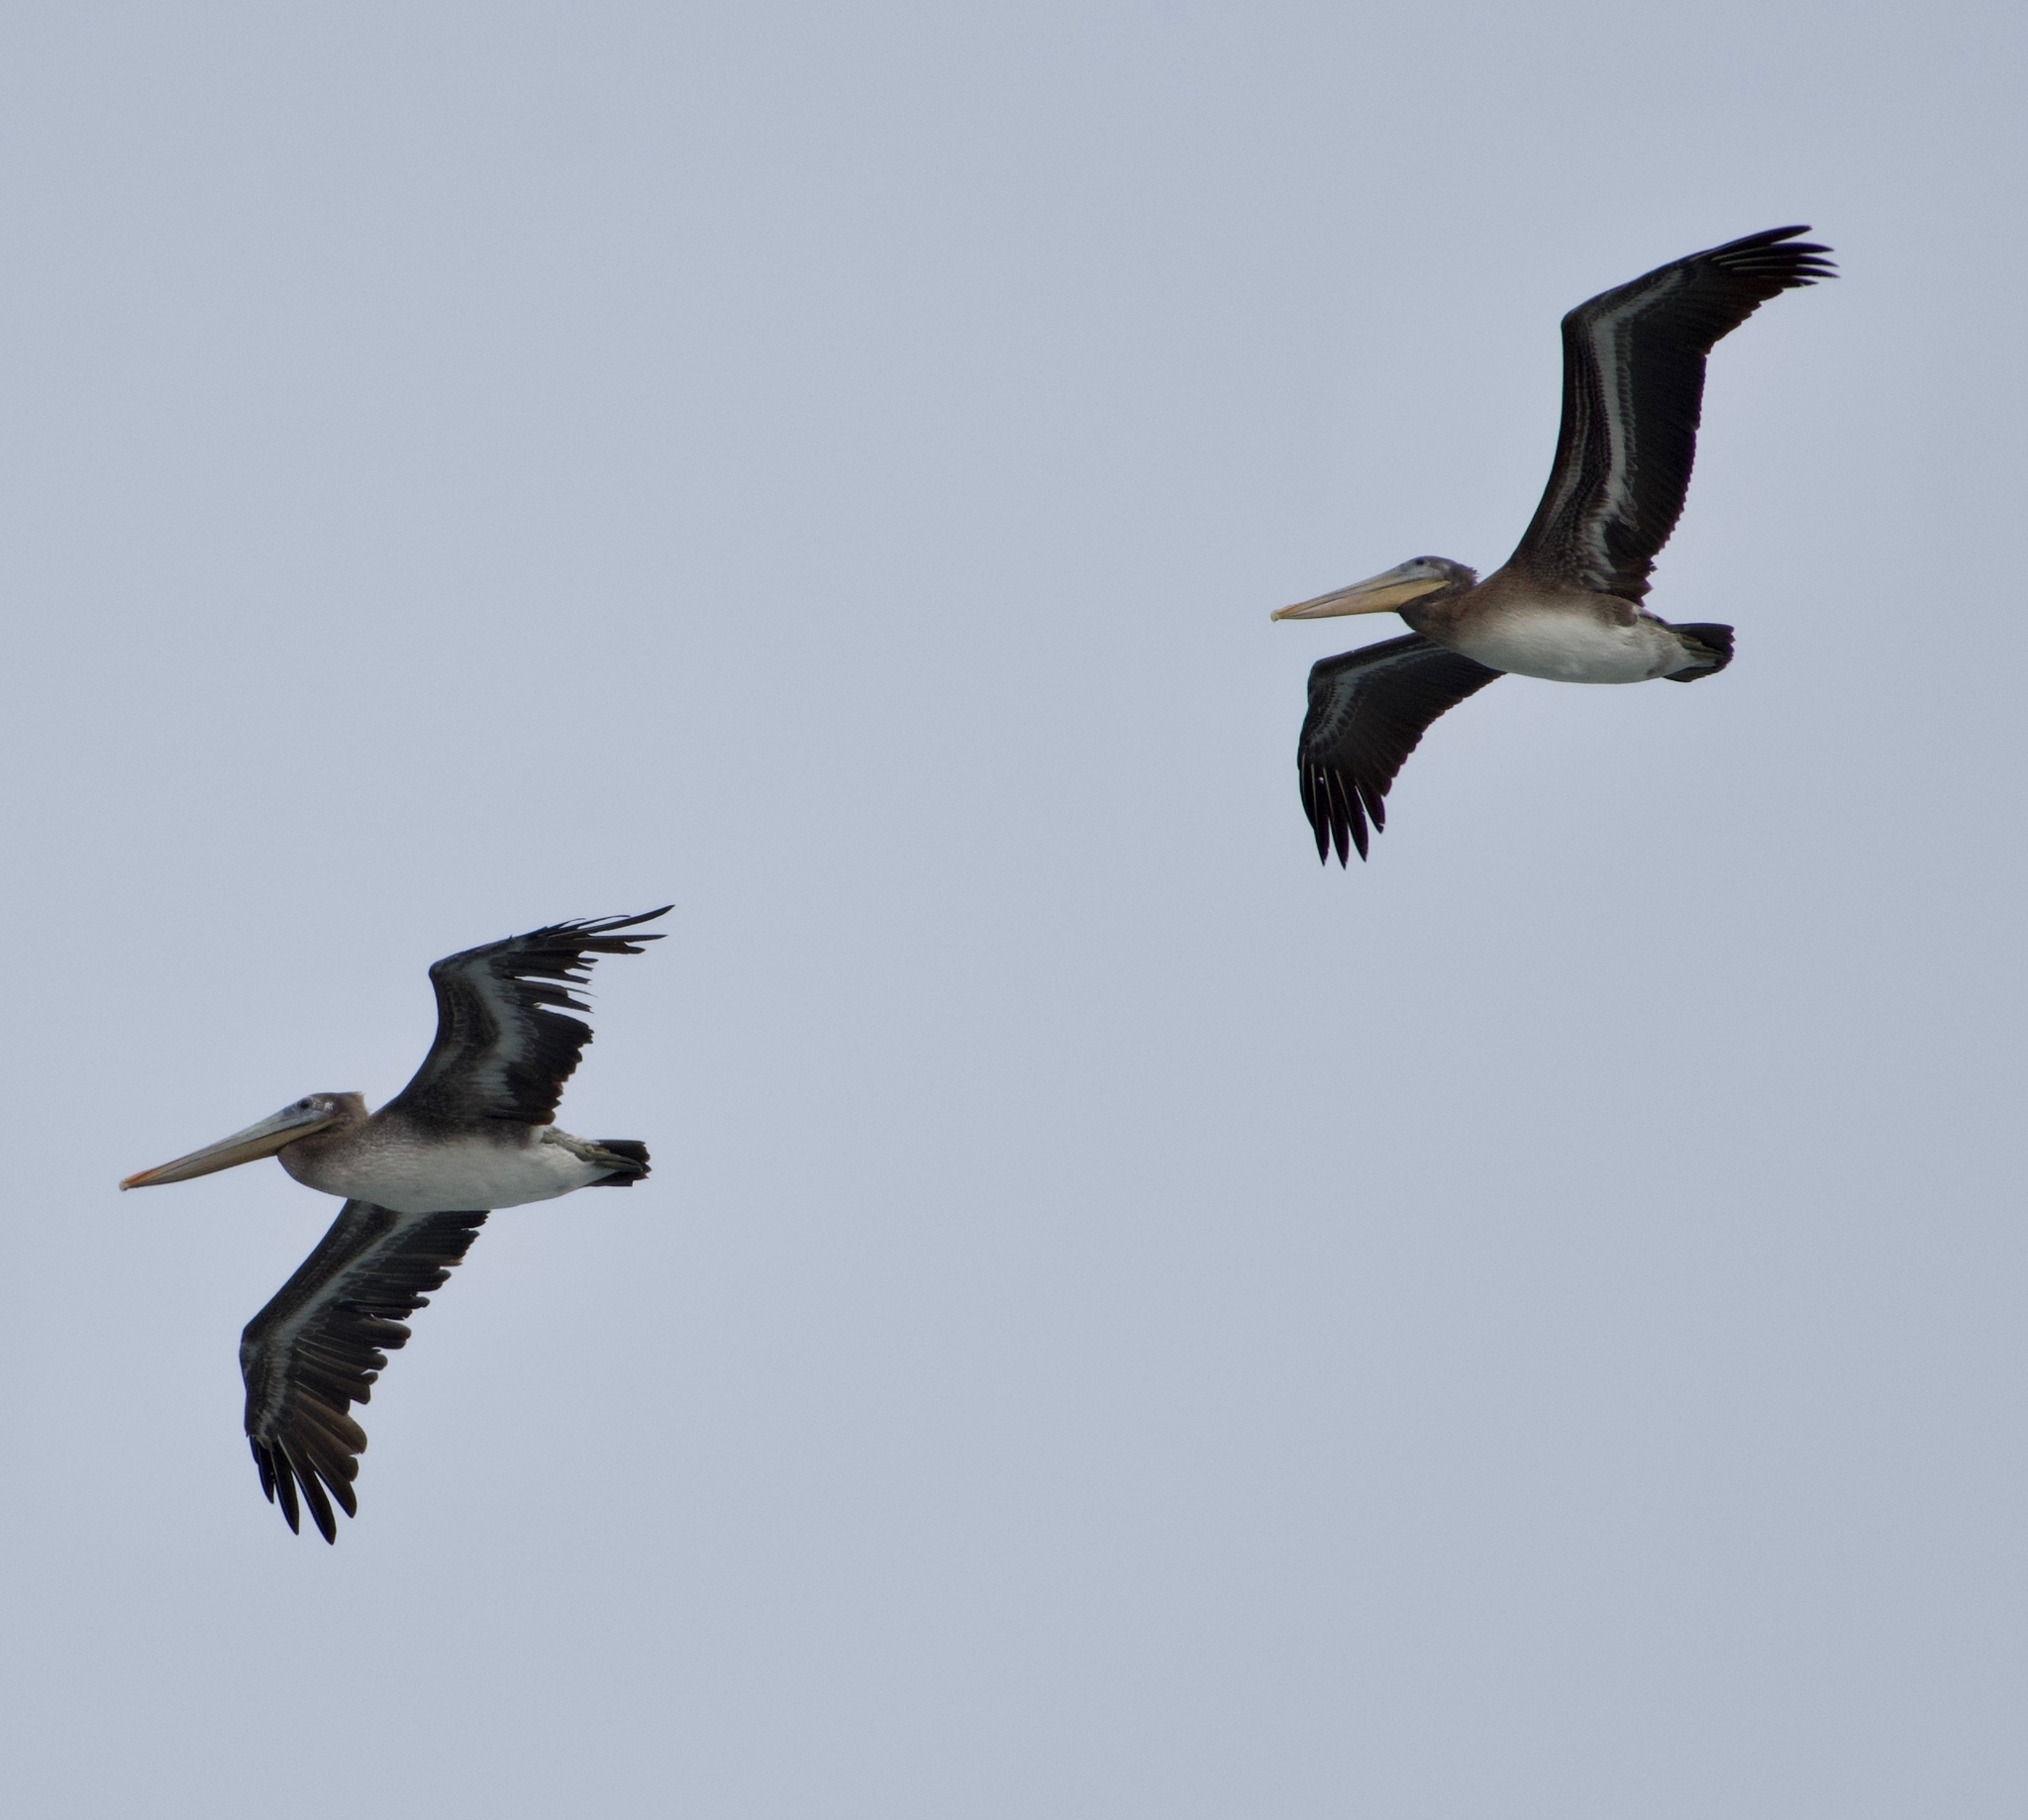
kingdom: Animalia
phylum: Chordata
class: Aves
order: Pelecaniformes
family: Pelecanidae
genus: Pelecanus
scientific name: Pelecanus occidentalis
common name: Brown pelican
